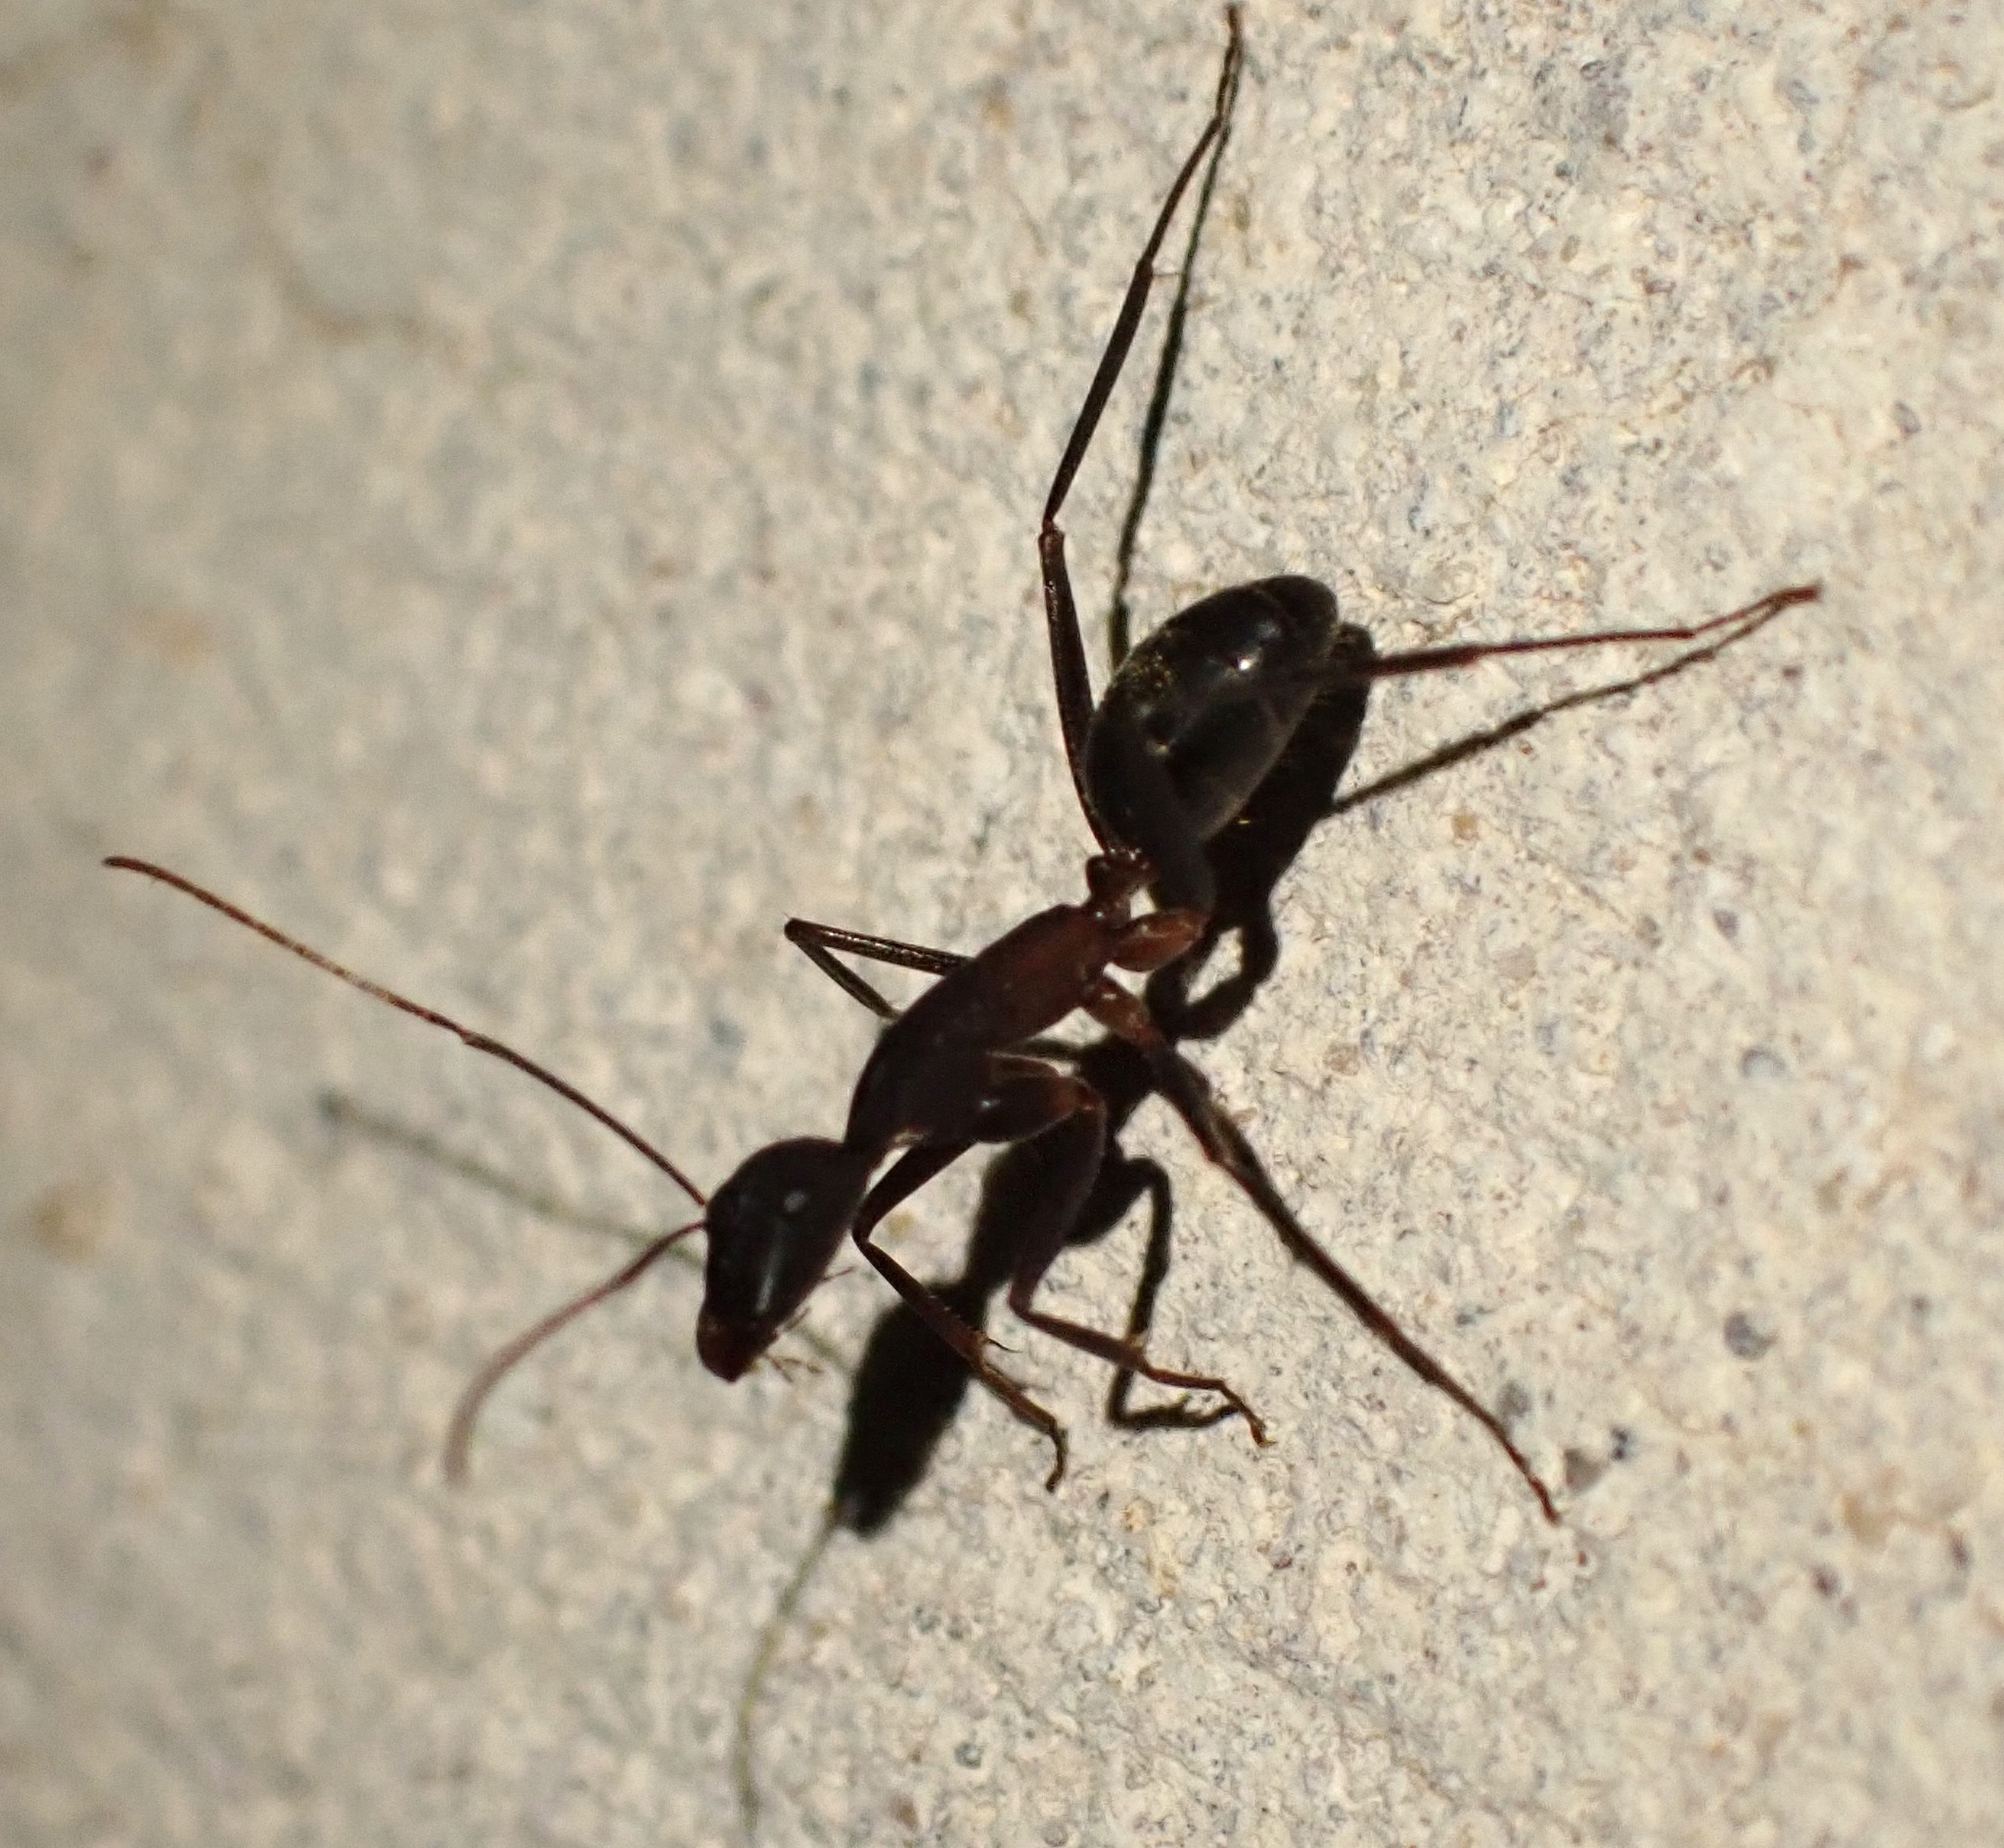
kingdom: Animalia
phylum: Arthropoda
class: Insecta
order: Hymenoptera
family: Formicidae
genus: Camponotus
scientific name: Camponotus pexus
